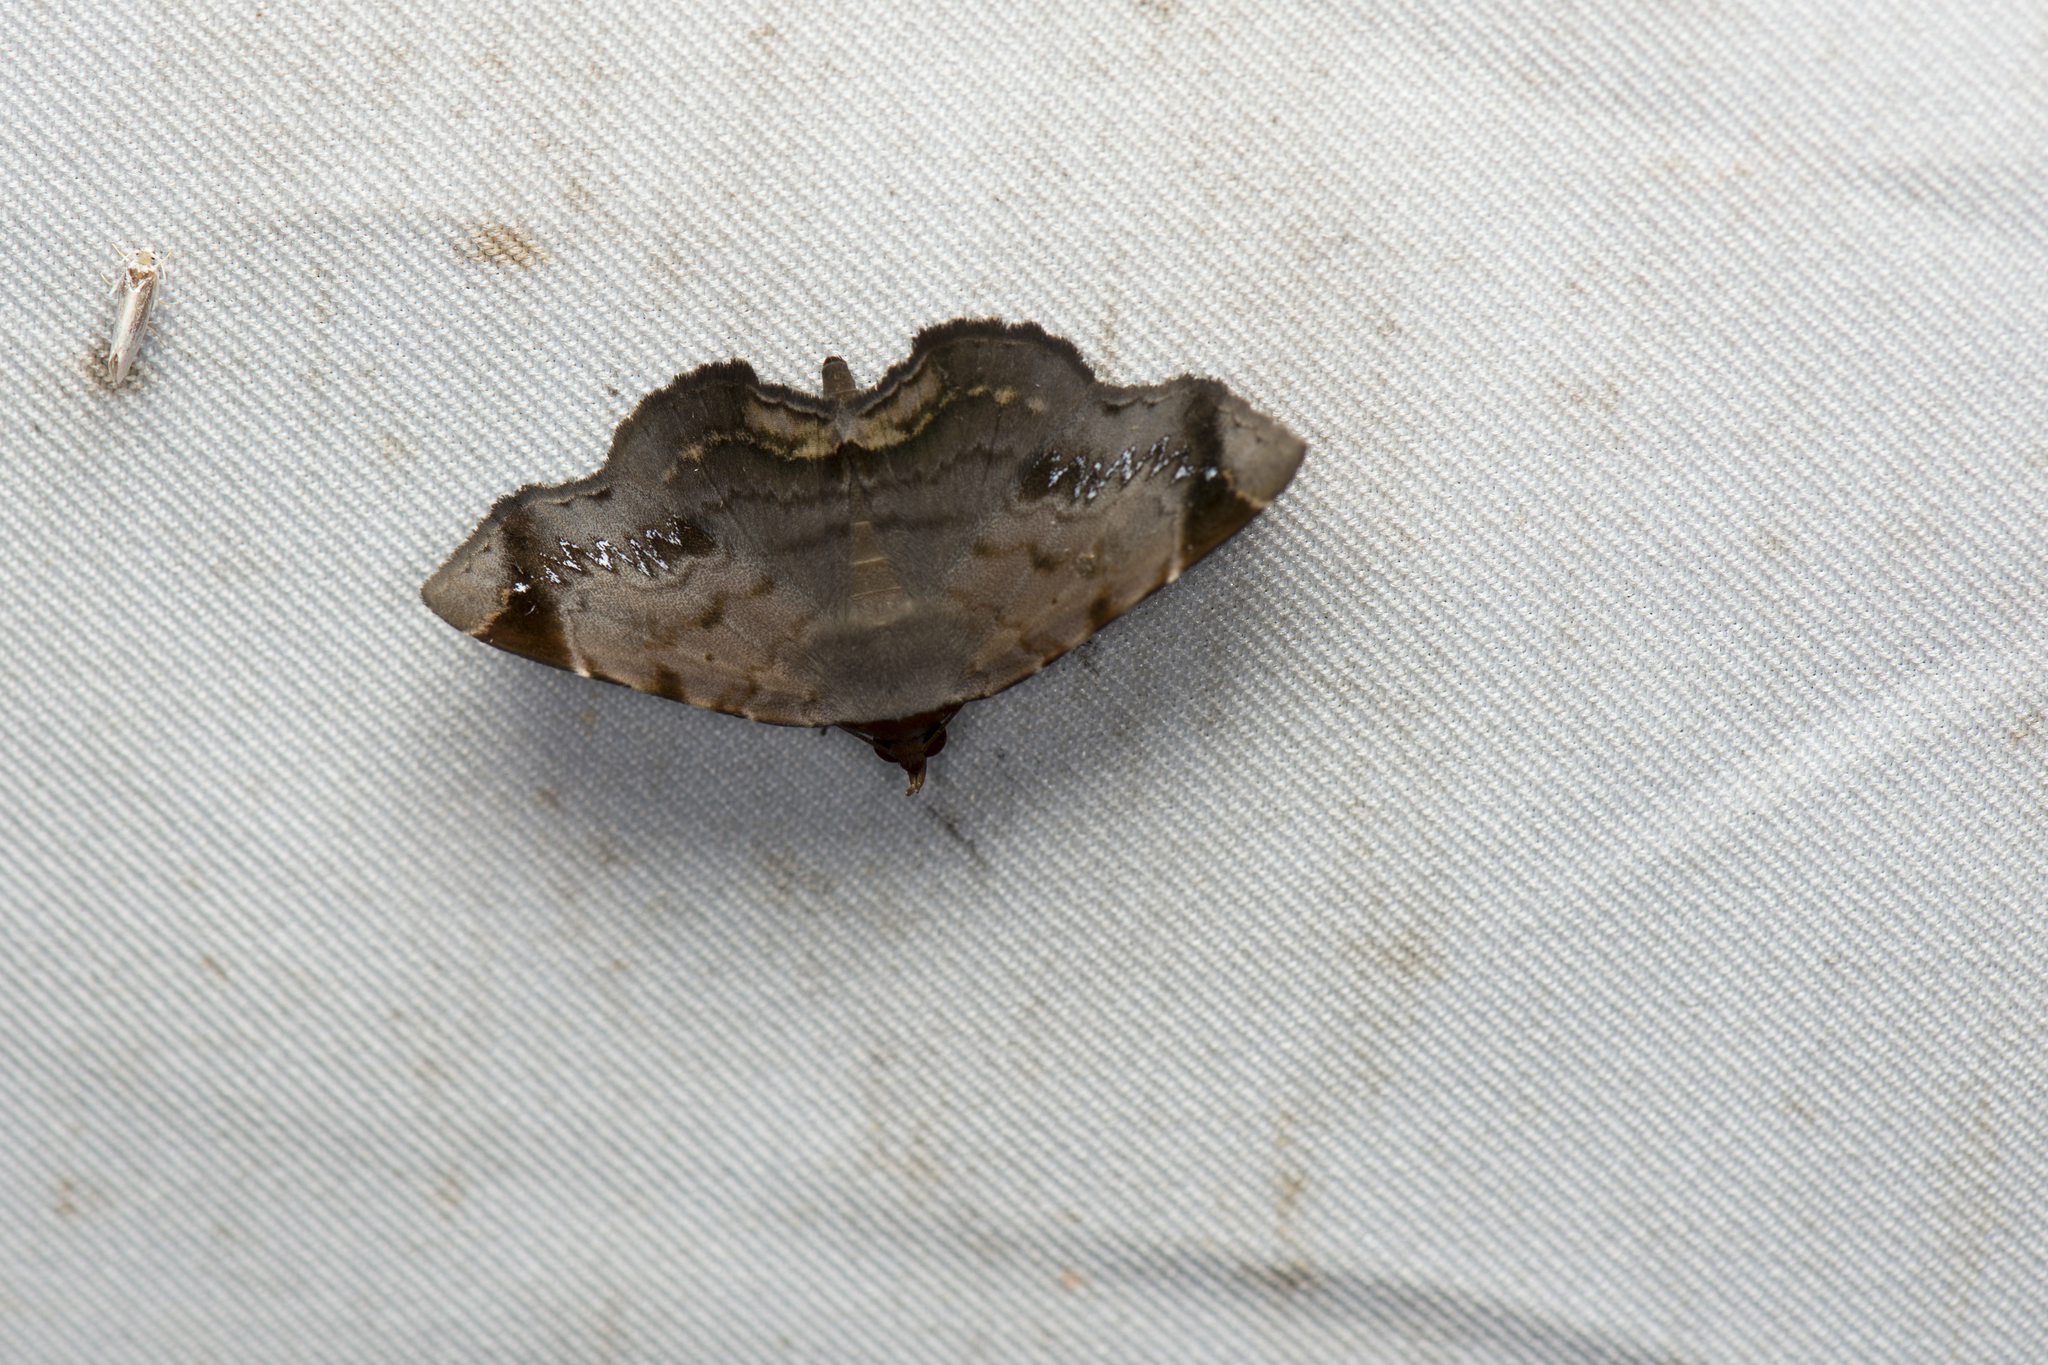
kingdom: Animalia
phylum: Arthropoda
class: Insecta
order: Lepidoptera
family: Erebidae
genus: Mecodina
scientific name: Mecodina albodentata
